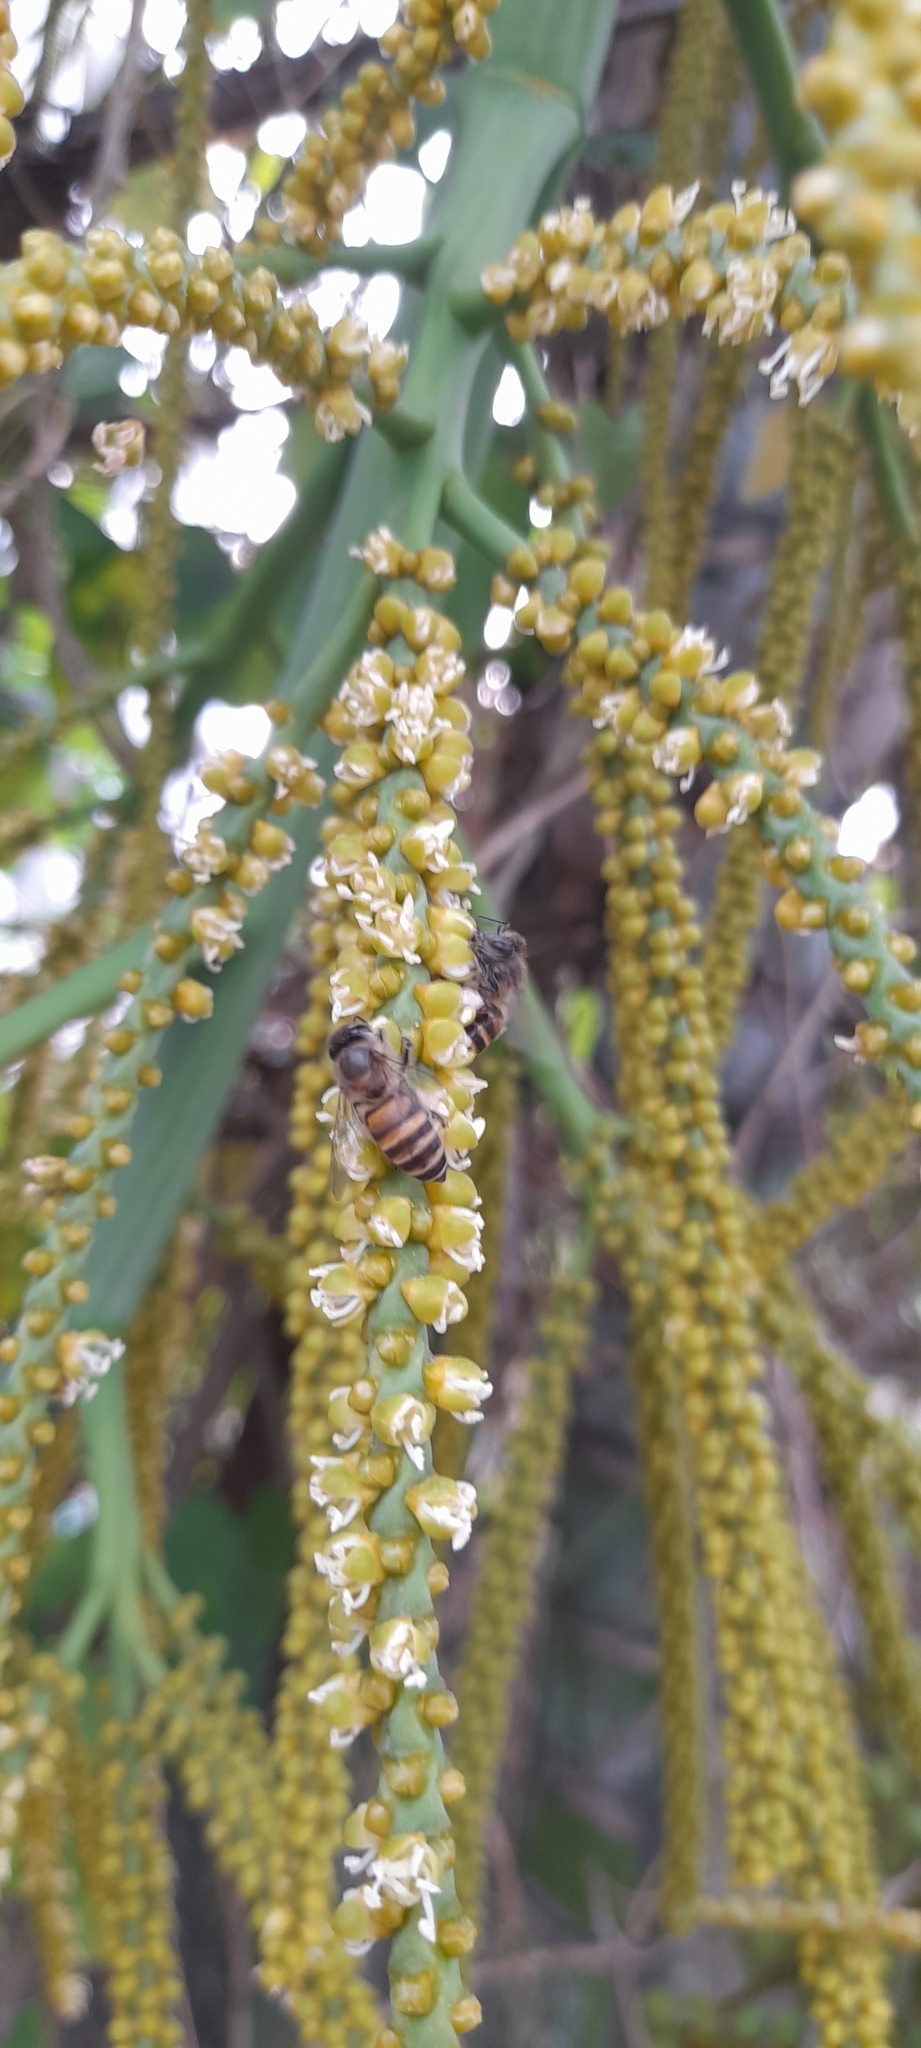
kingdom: Animalia
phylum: Arthropoda
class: Insecta
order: Hymenoptera
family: Apidae
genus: Apis
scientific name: Apis cerana
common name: Honey bee
